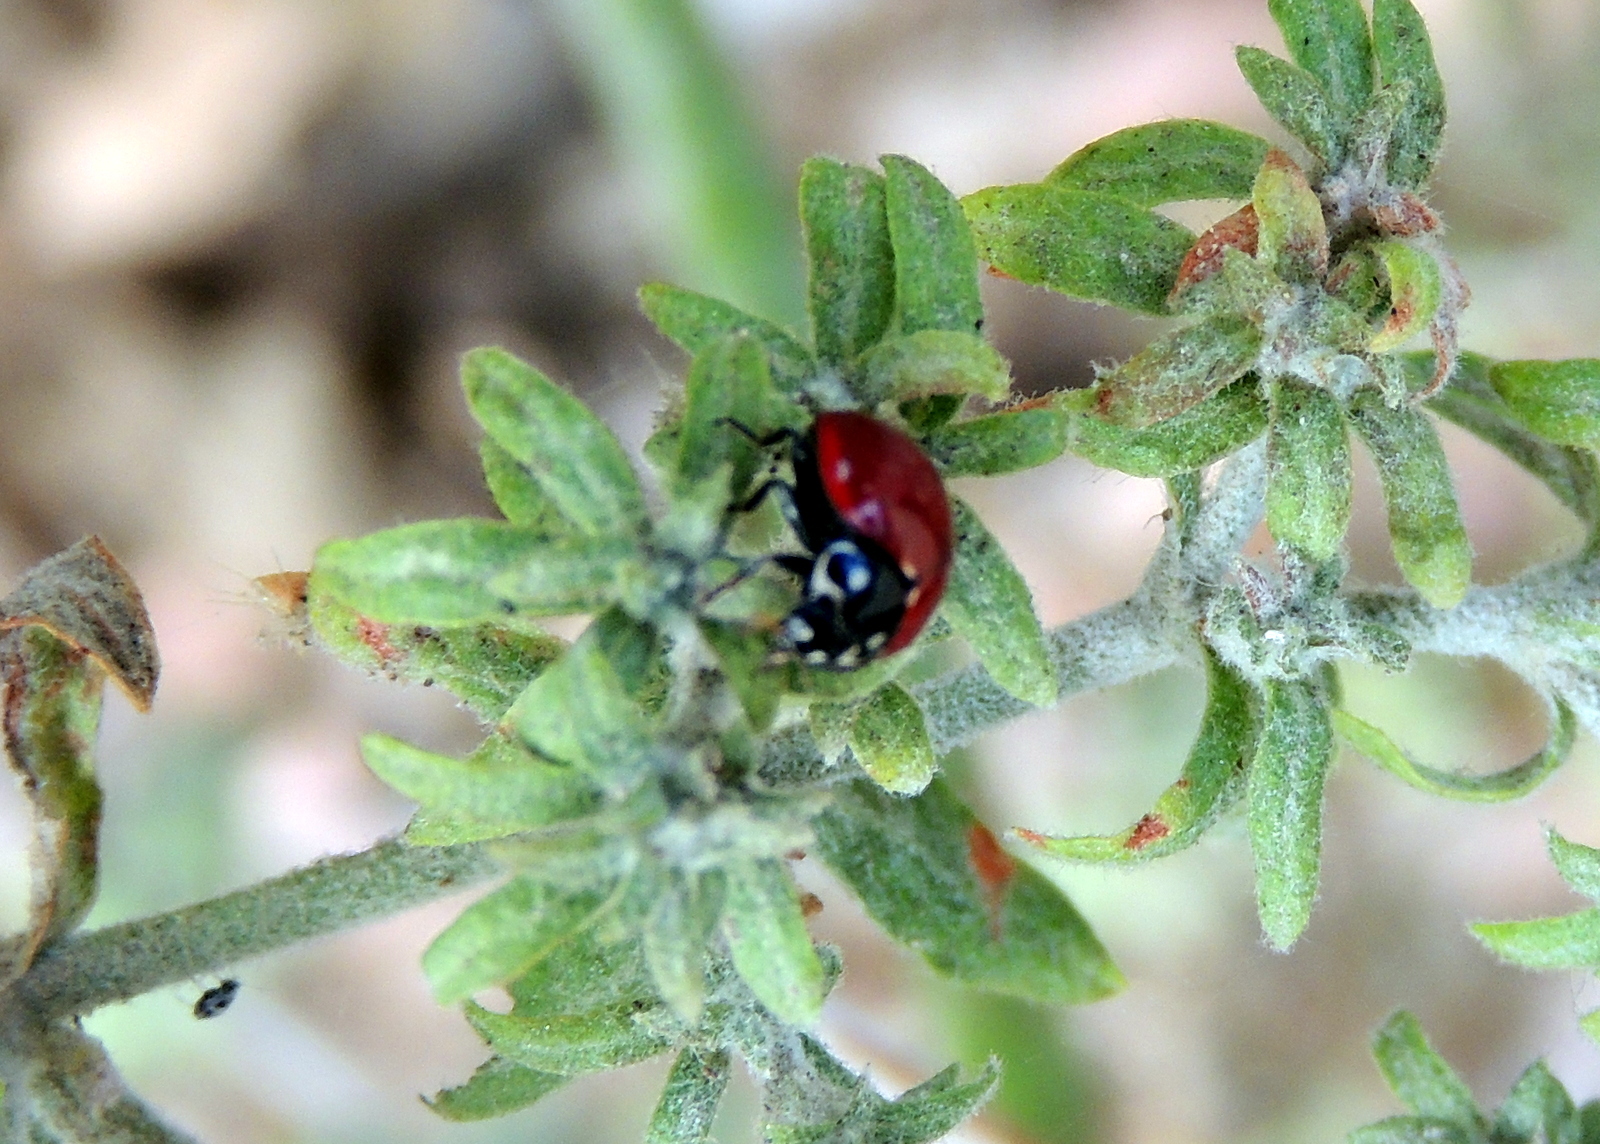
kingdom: Animalia
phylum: Arthropoda
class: Insecta
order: Coleoptera
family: Coccinellidae
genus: Cycloneda
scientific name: Cycloneda sanguinea
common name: Ladybird beetle
